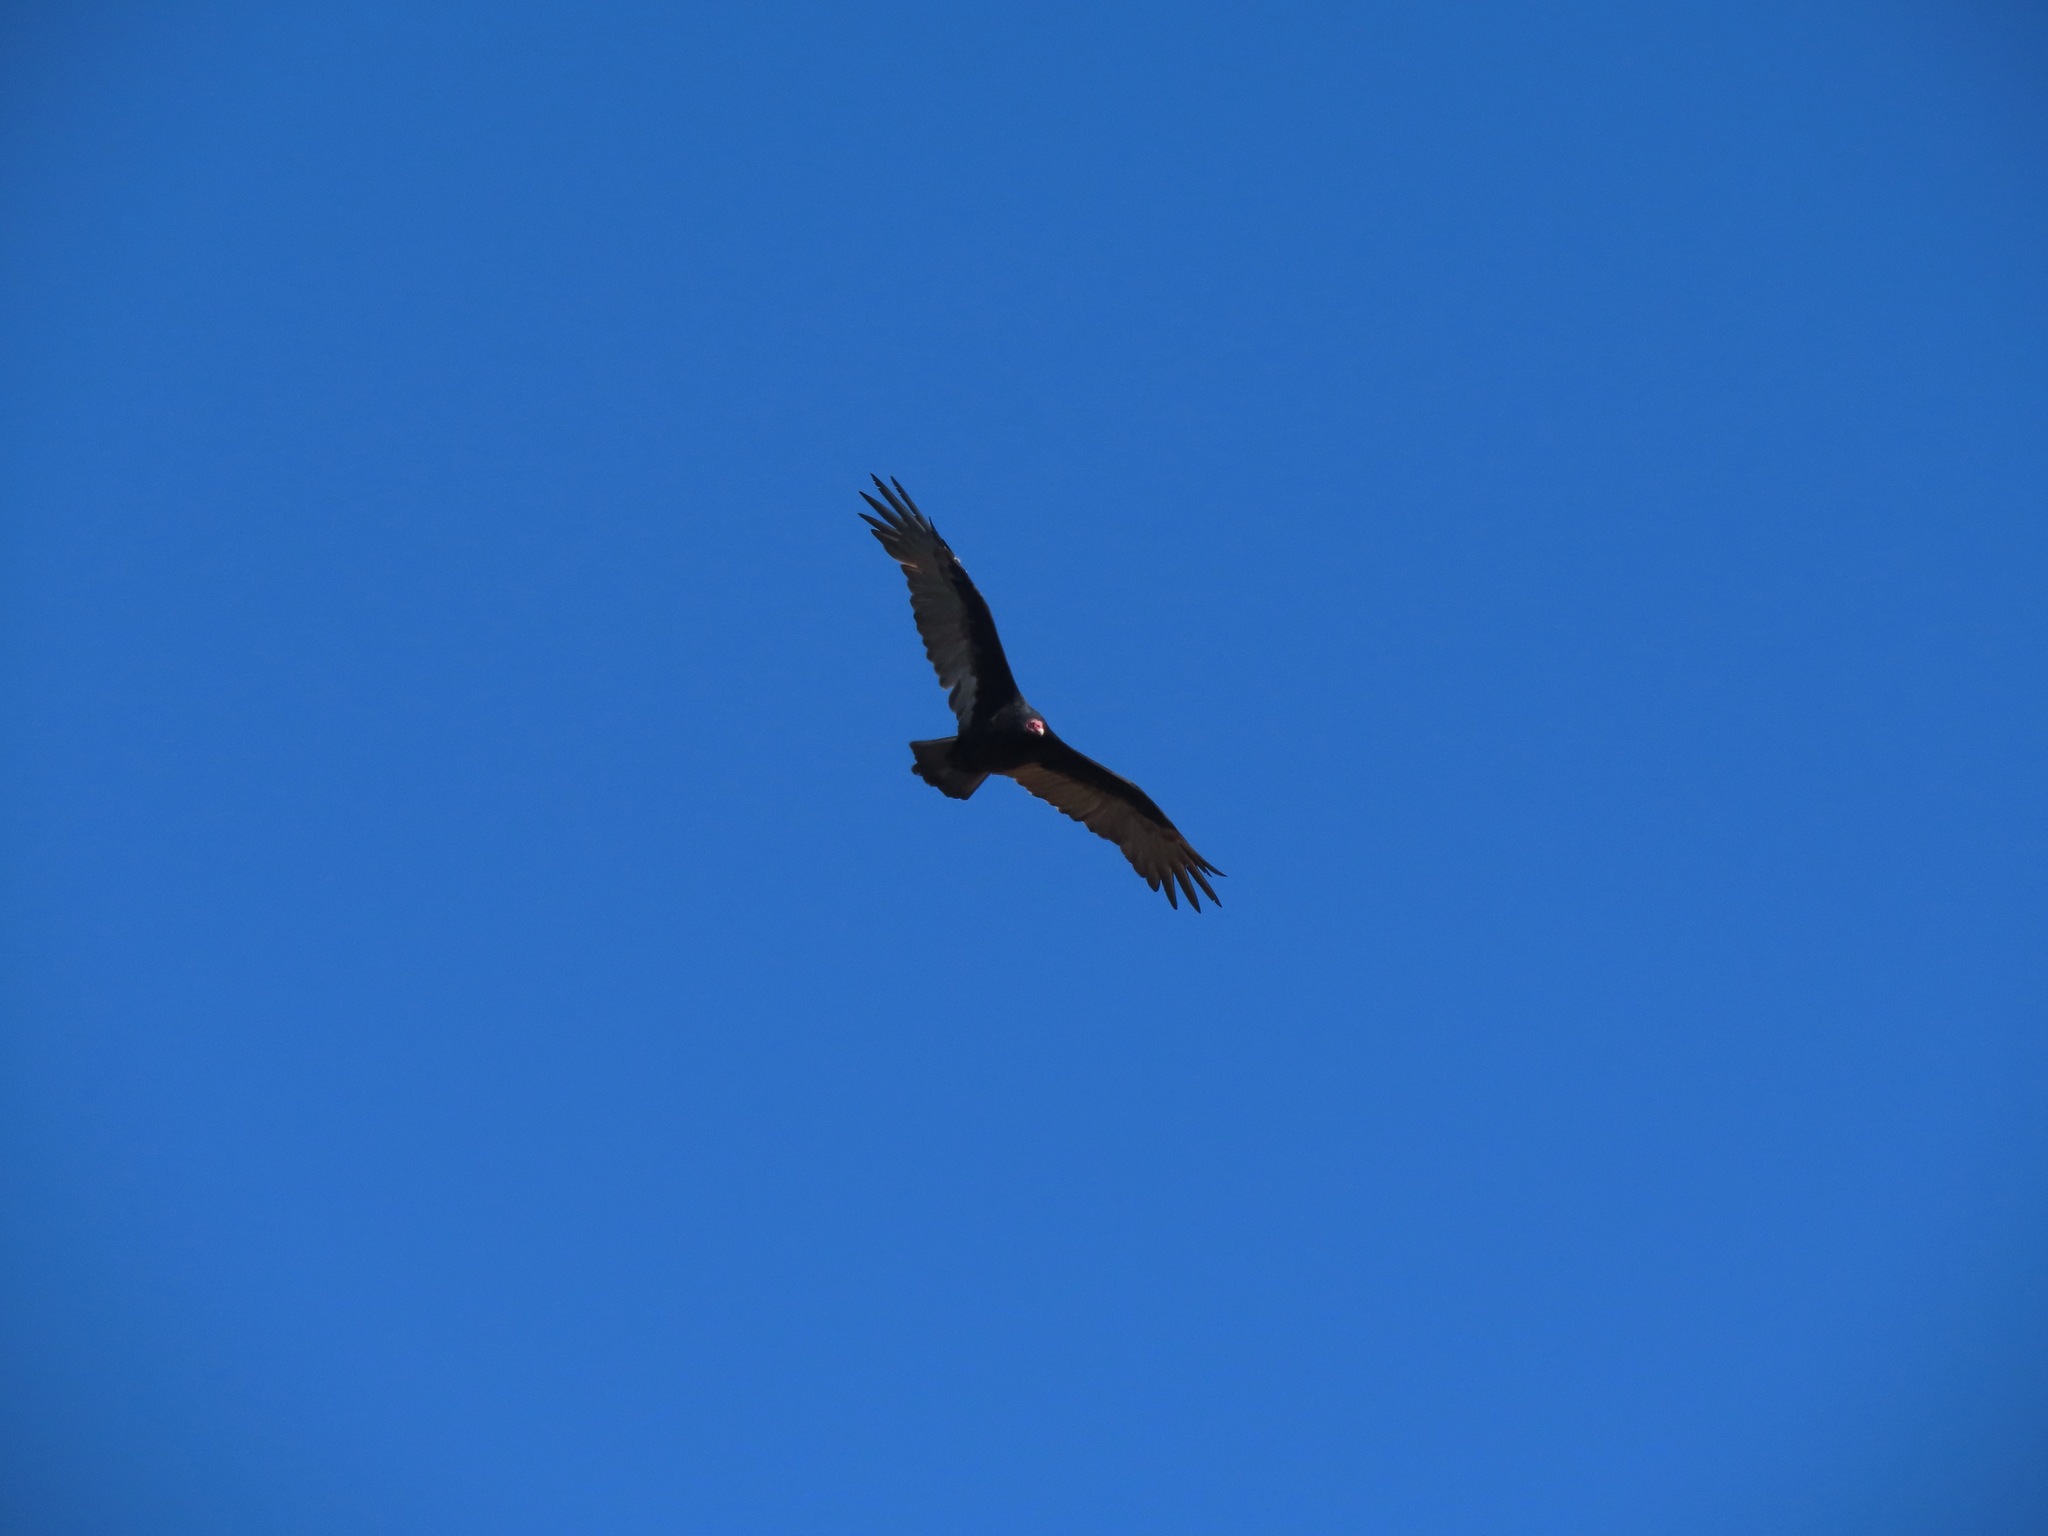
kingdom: Animalia
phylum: Chordata
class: Aves
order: Accipitriformes
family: Cathartidae
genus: Cathartes
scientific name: Cathartes aura
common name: Turkey vulture
